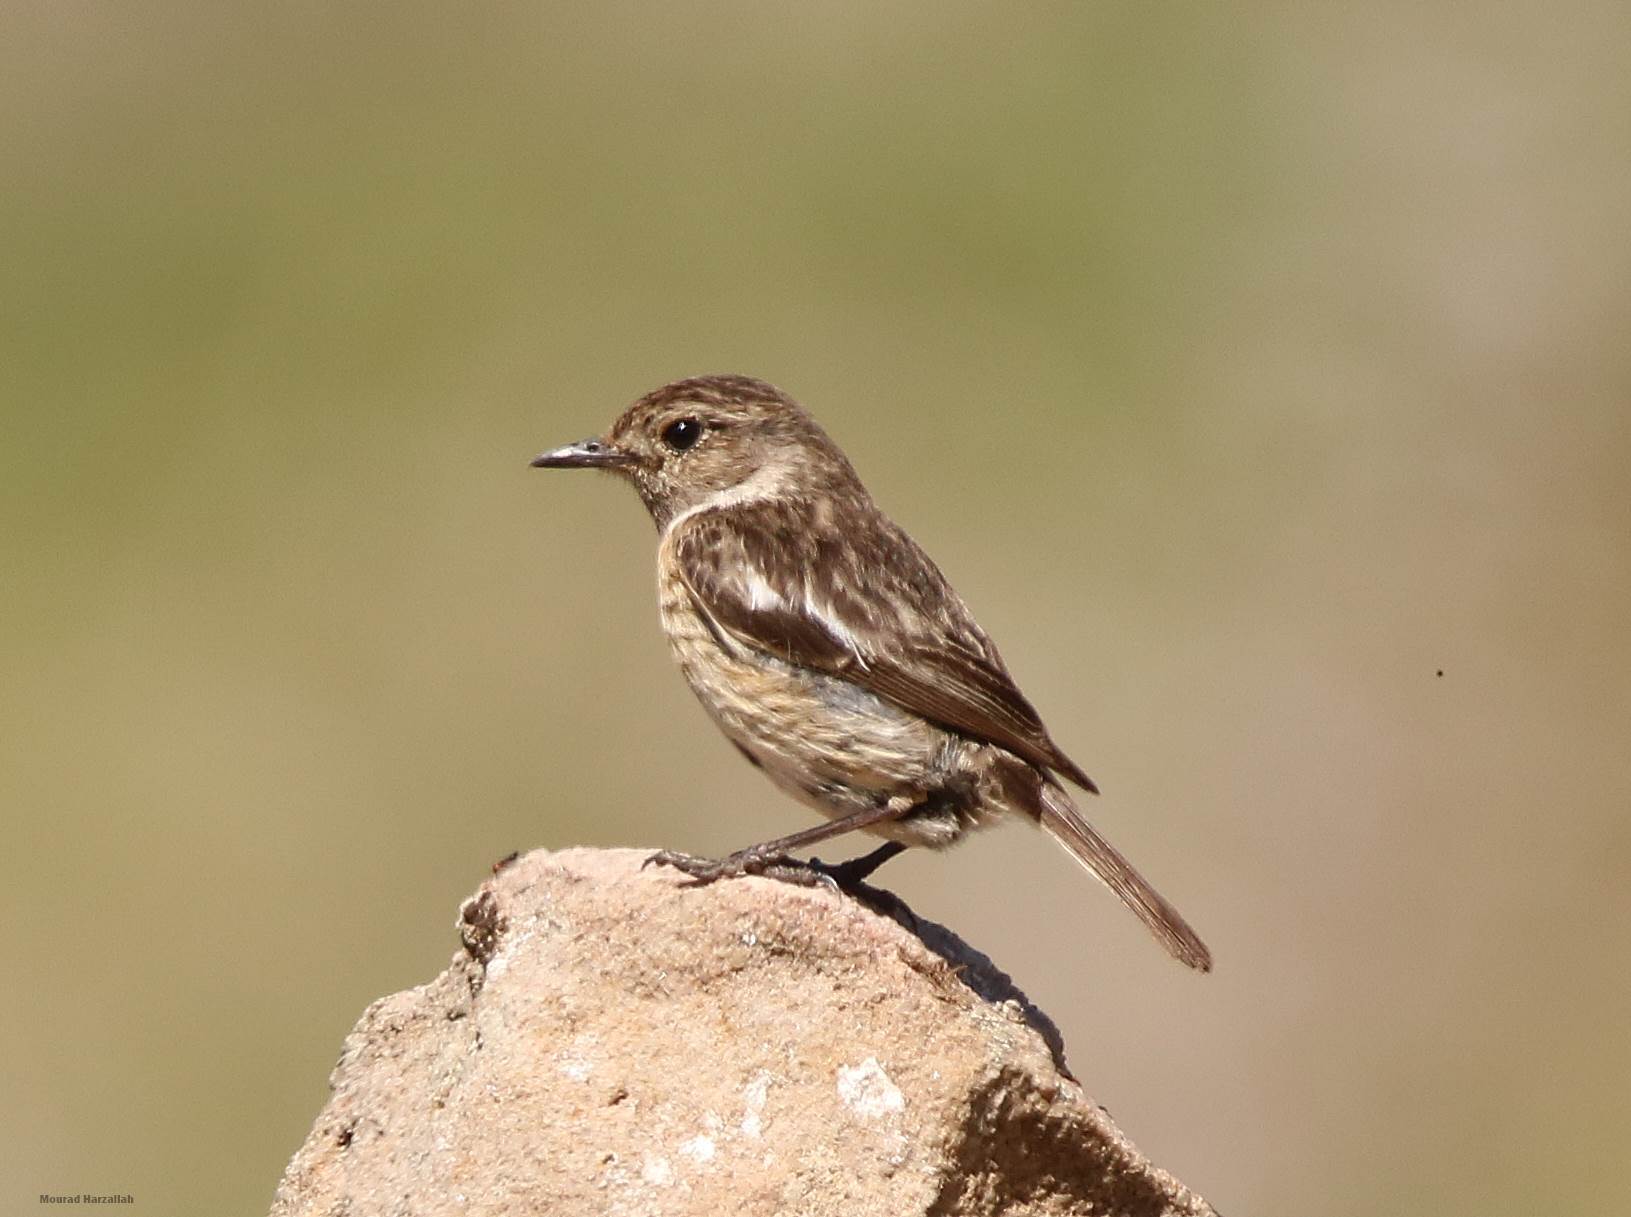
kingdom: Animalia
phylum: Chordata
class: Aves
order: Passeriformes
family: Muscicapidae
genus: Saxicola
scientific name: Saxicola rubicola
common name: European stonechat
